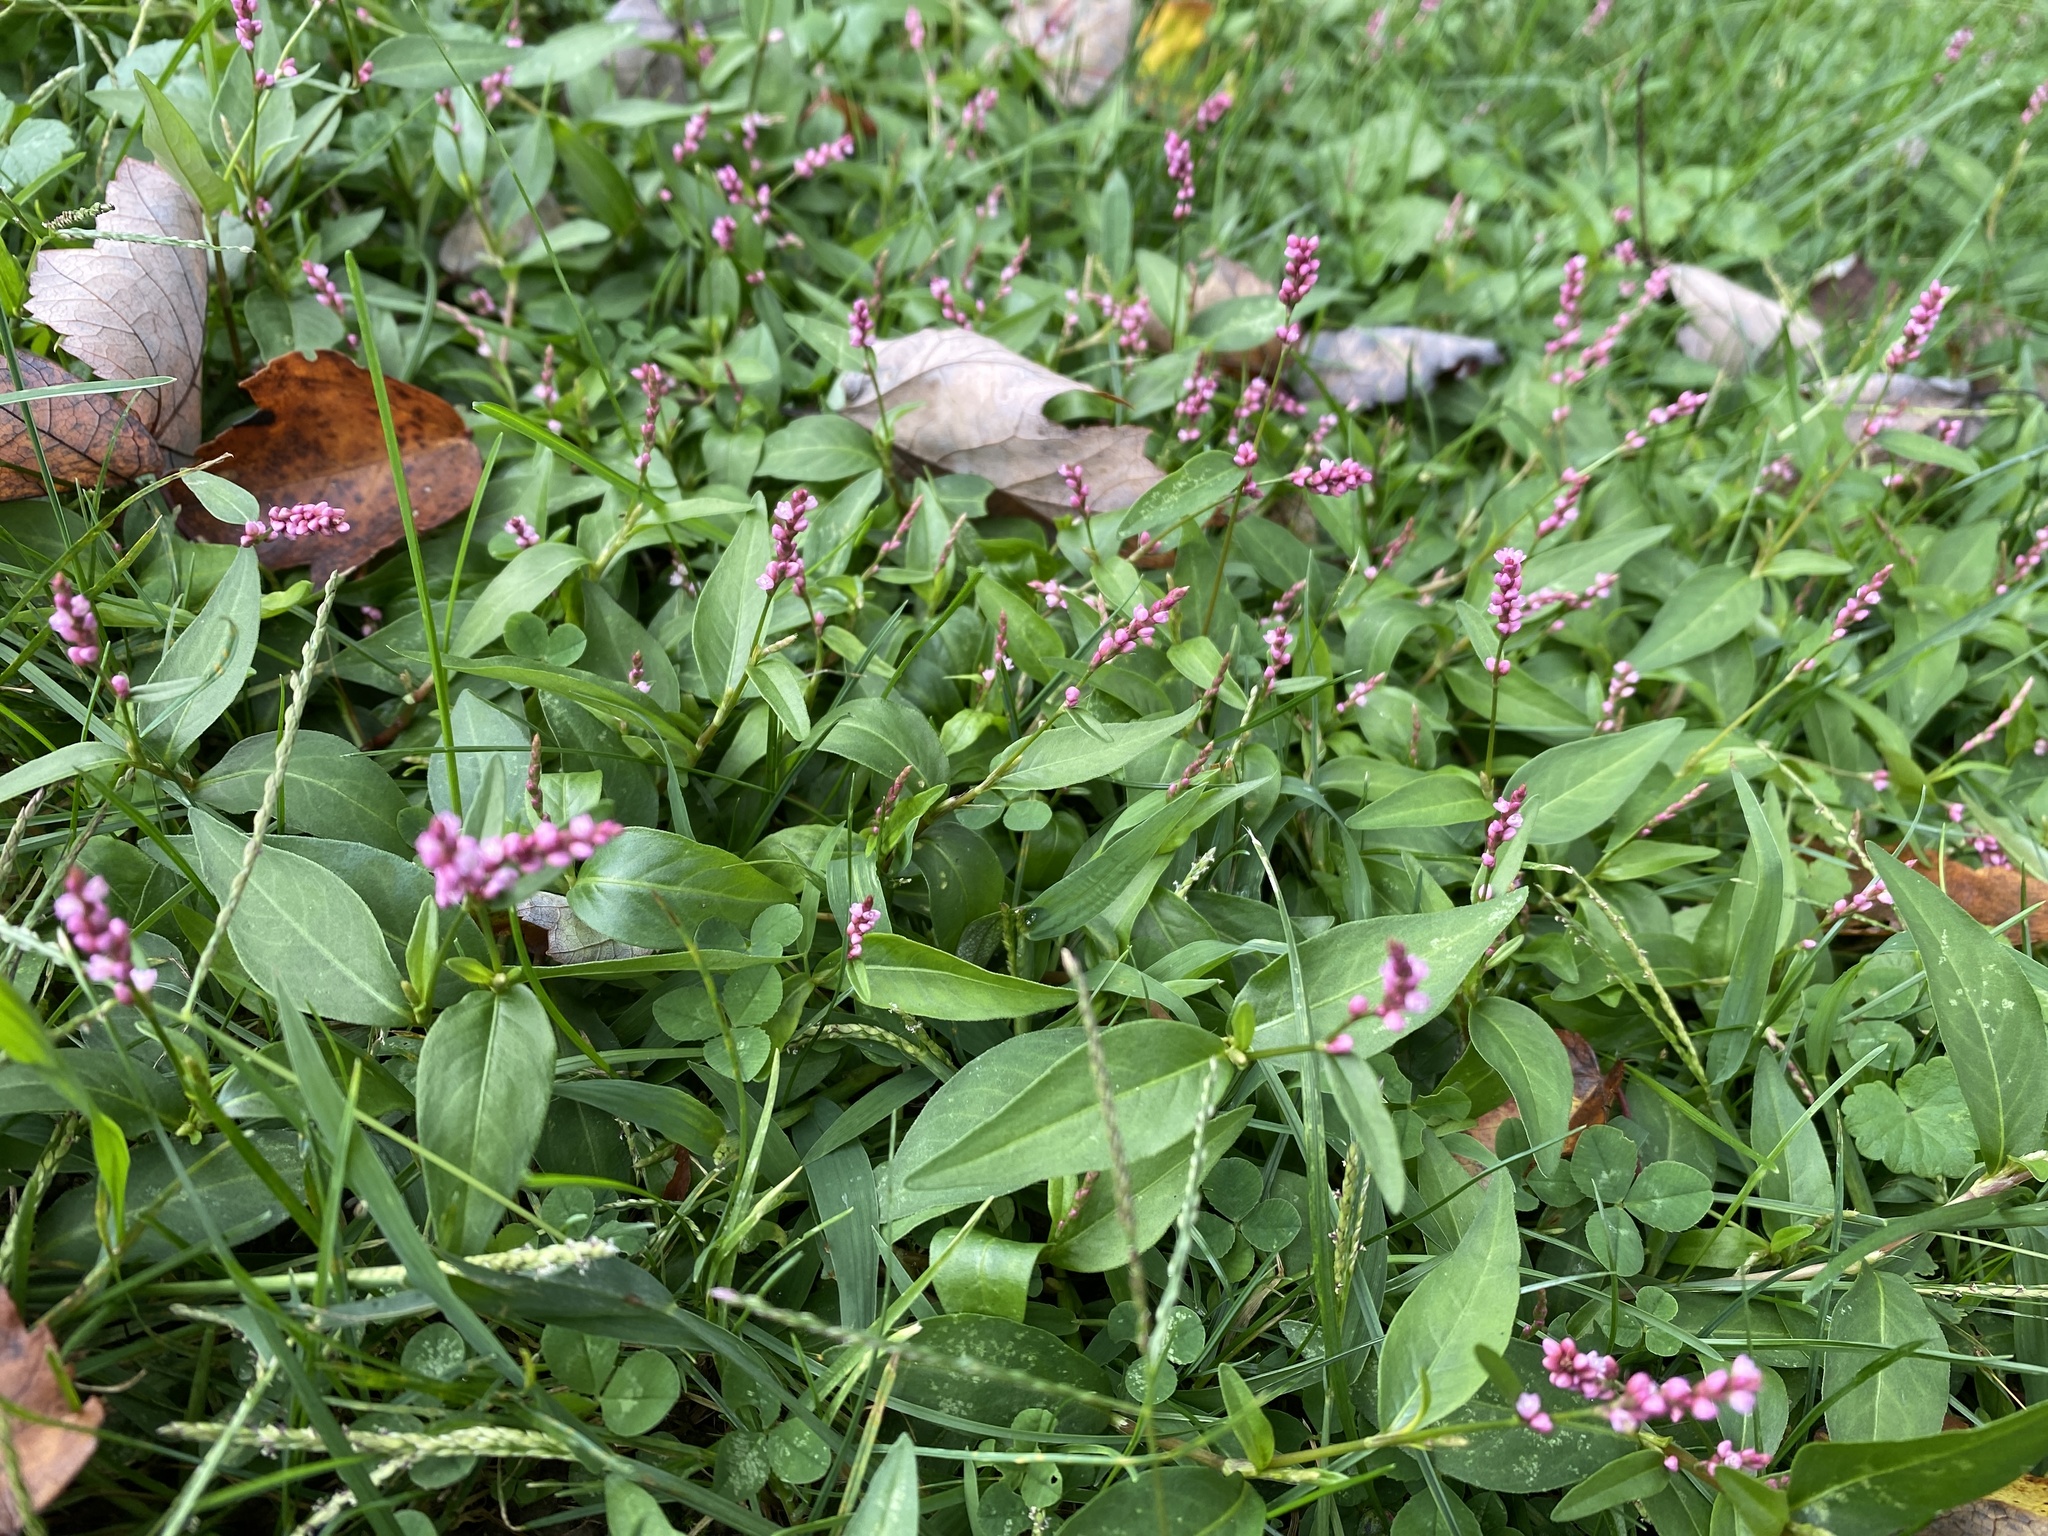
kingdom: Plantae
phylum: Tracheophyta
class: Magnoliopsida
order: Caryophyllales
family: Polygonaceae
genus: Persicaria
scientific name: Persicaria longiseta
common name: Bristly lady's-thumb
